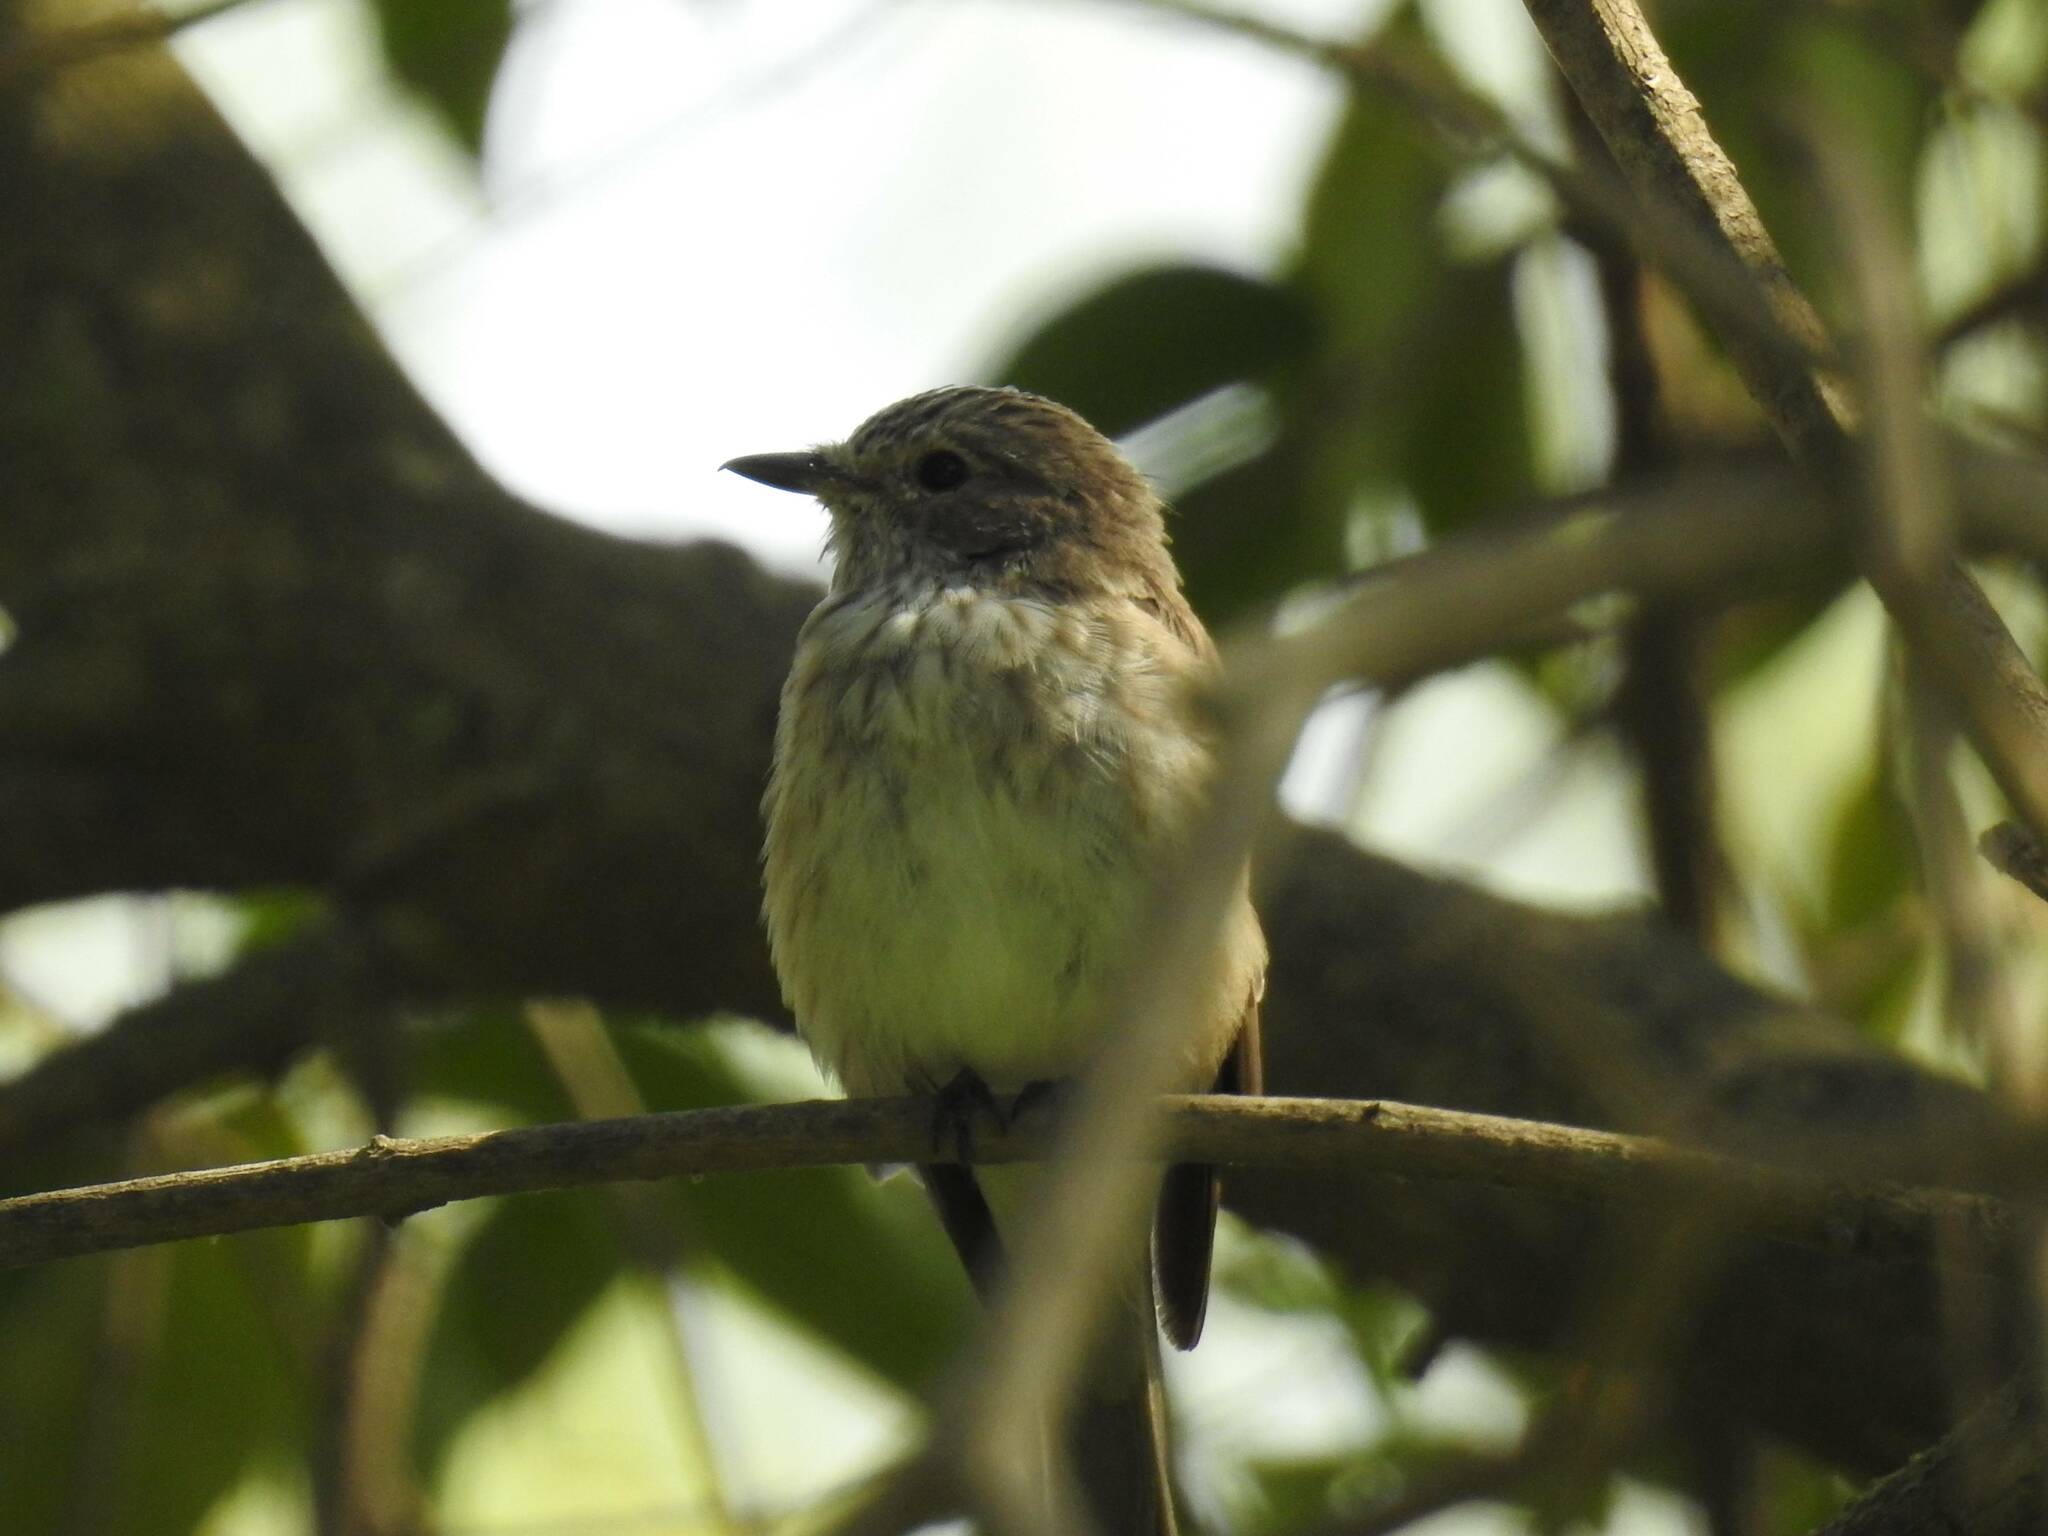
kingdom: Animalia
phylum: Chordata
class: Aves
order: Passeriformes
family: Muscicapidae
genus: Muscicapa
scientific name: Muscicapa striata
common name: Spotted flycatcher
